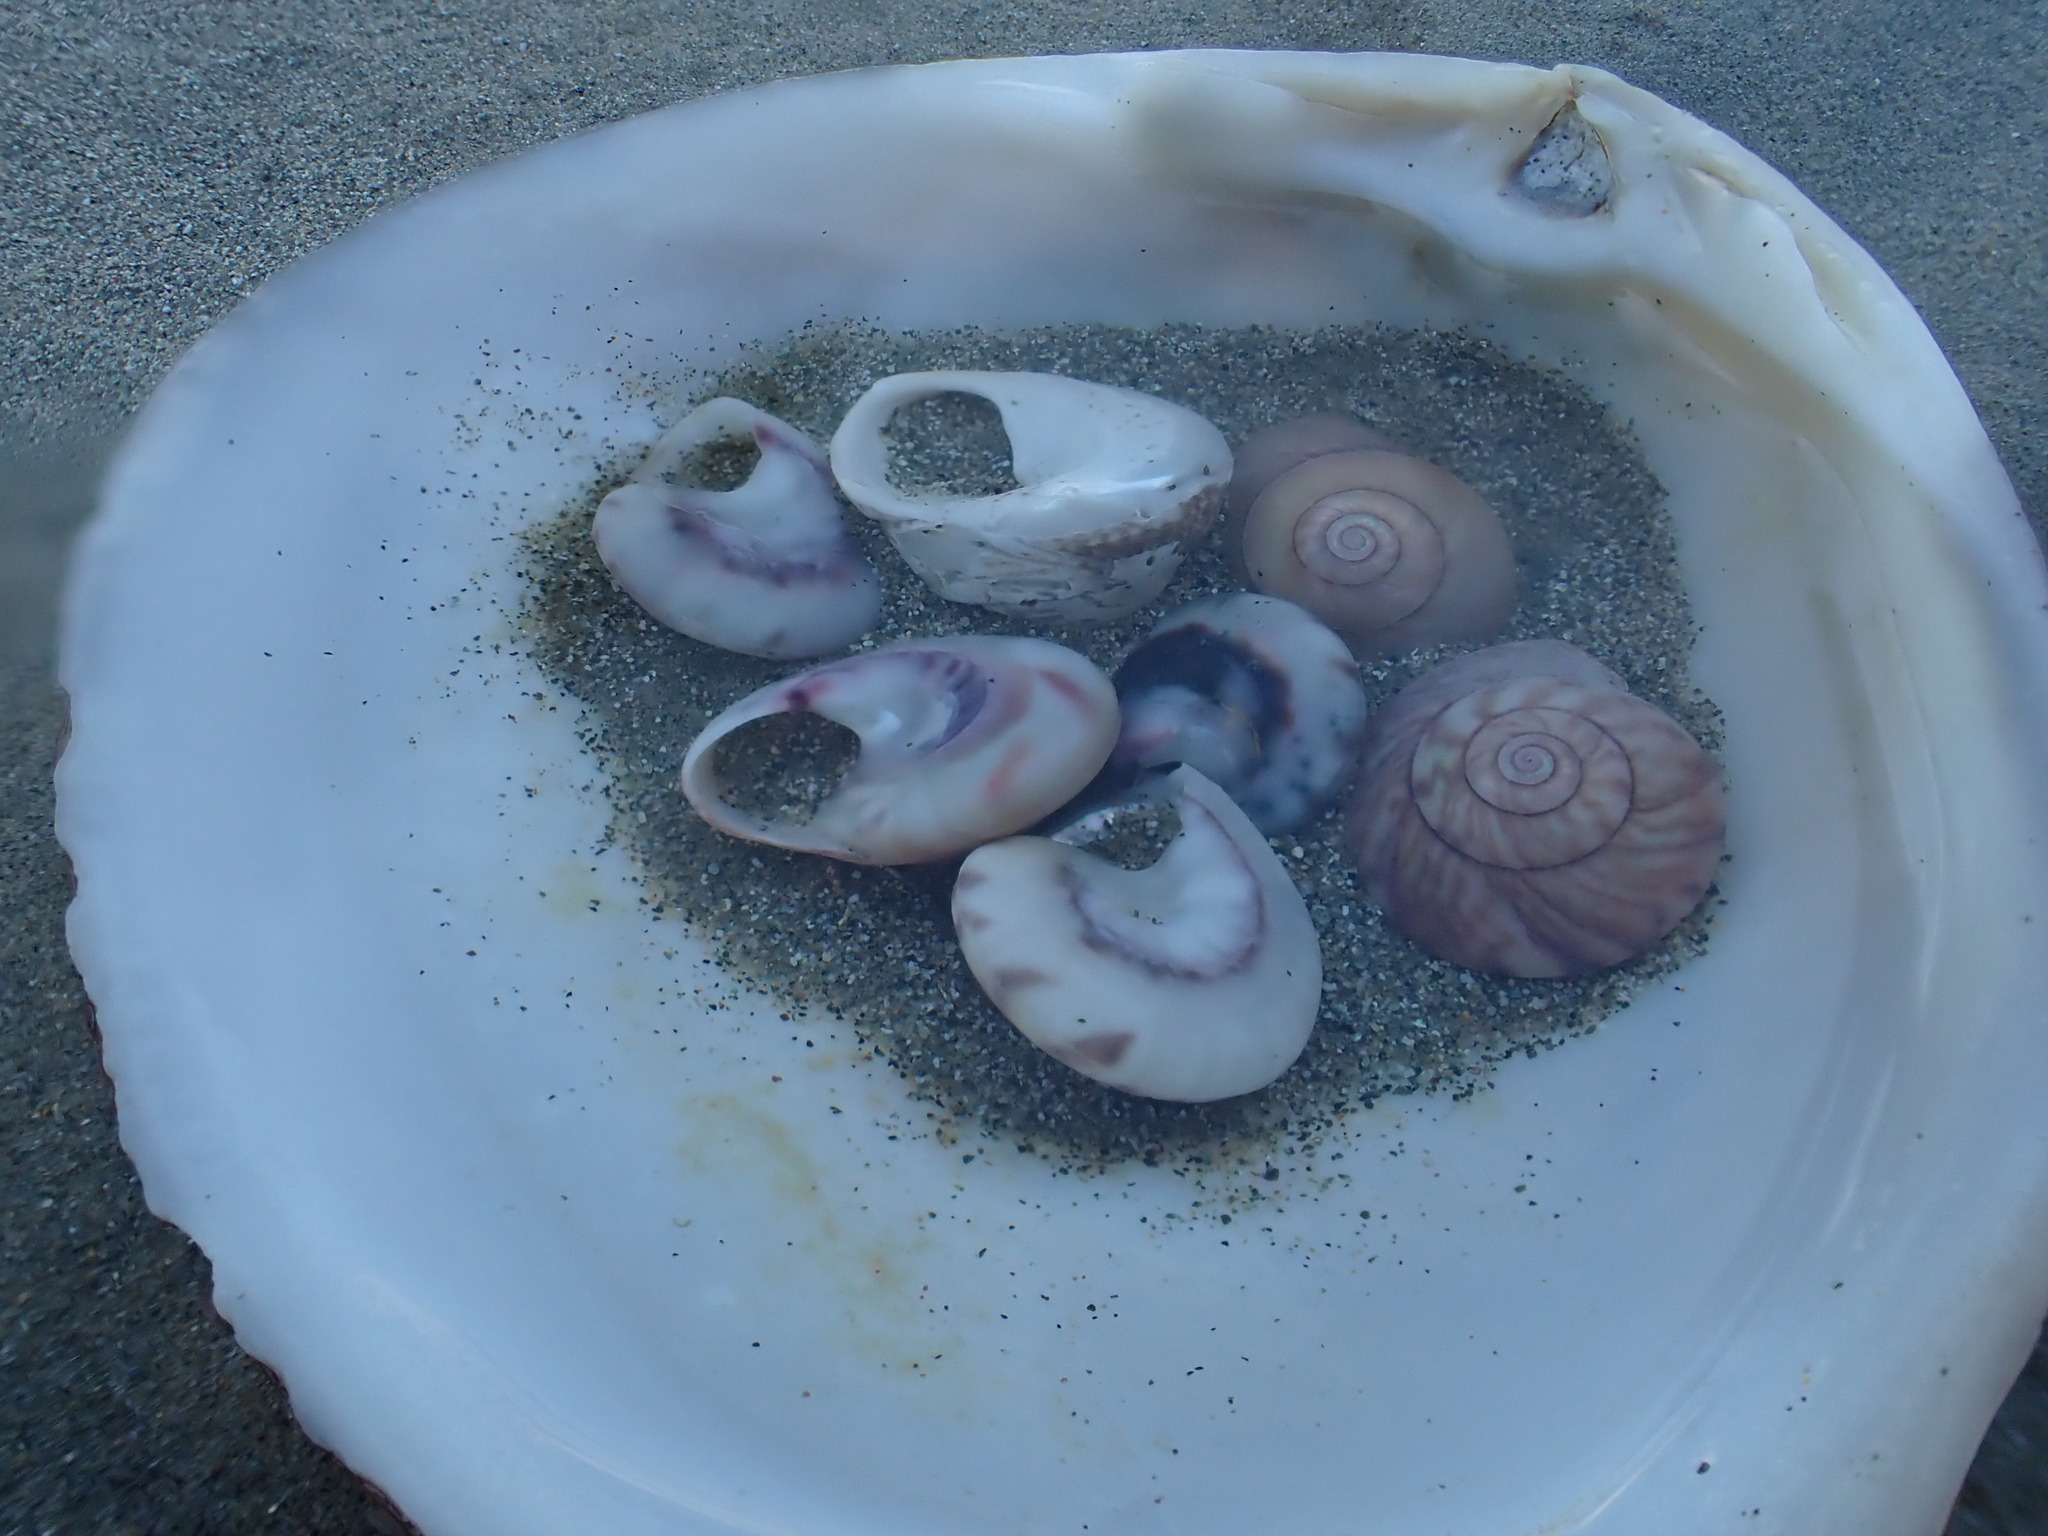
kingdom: Animalia
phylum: Mollusca
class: Gastropoda
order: Trochida
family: Trochidae
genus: Zethalia
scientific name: Zethalia zelandica
